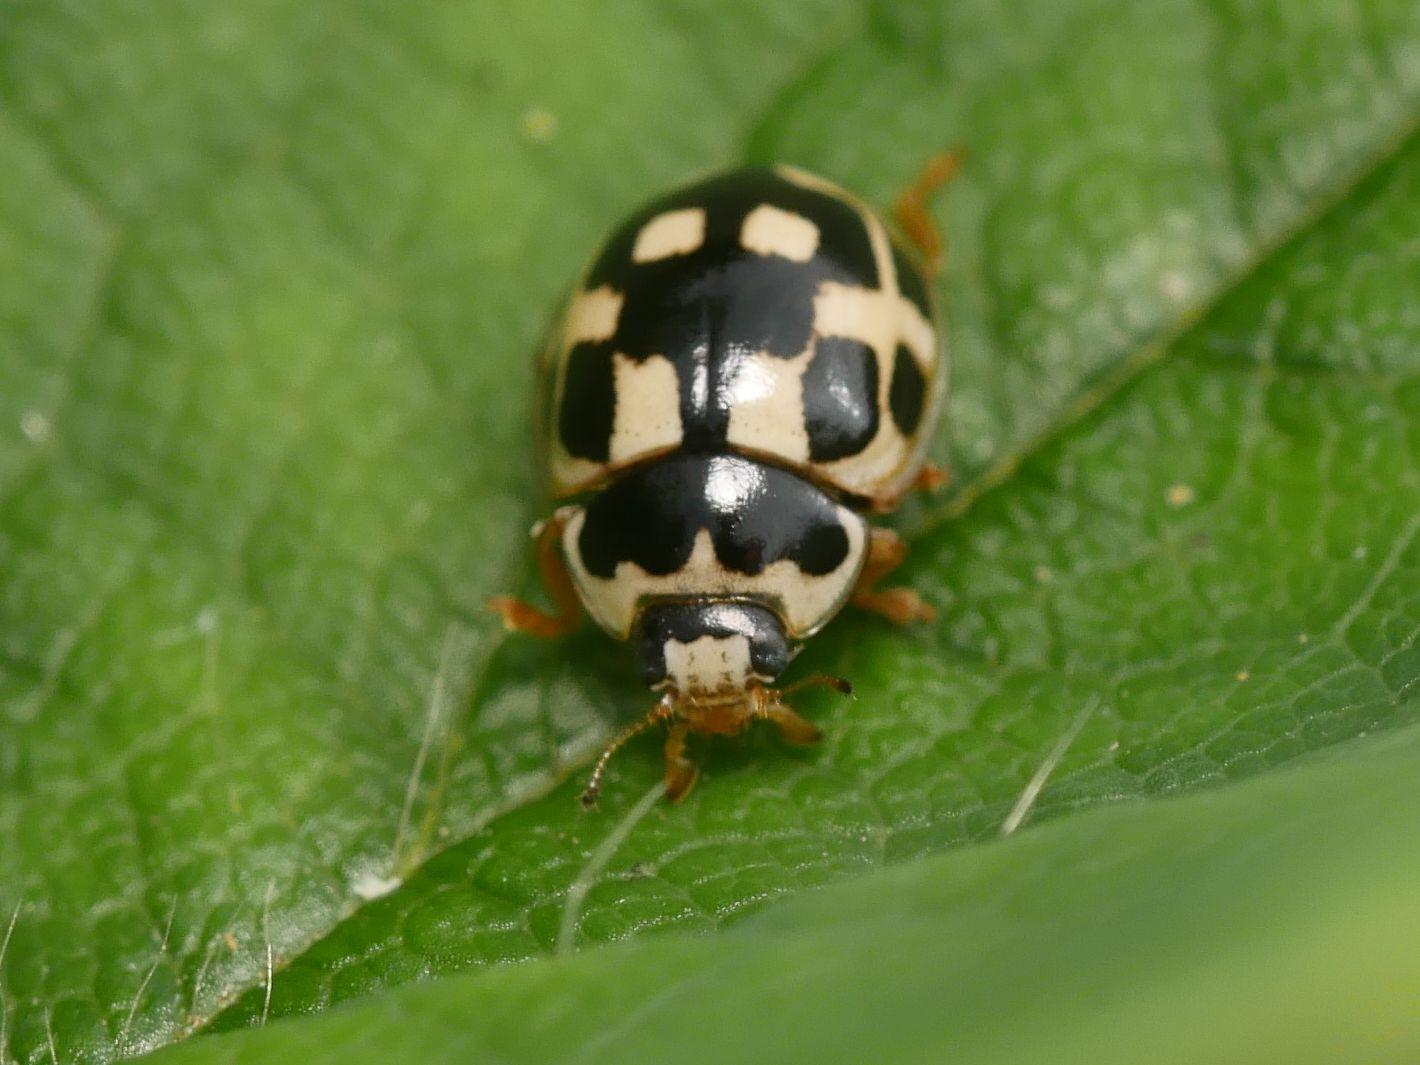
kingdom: Animalia
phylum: Arthropoda
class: Insecta
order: Coleoptera
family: Coccinellidae
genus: Propylaea
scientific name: Propylaea quatuordecimpunctata
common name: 14-spotted ladybird beetle
